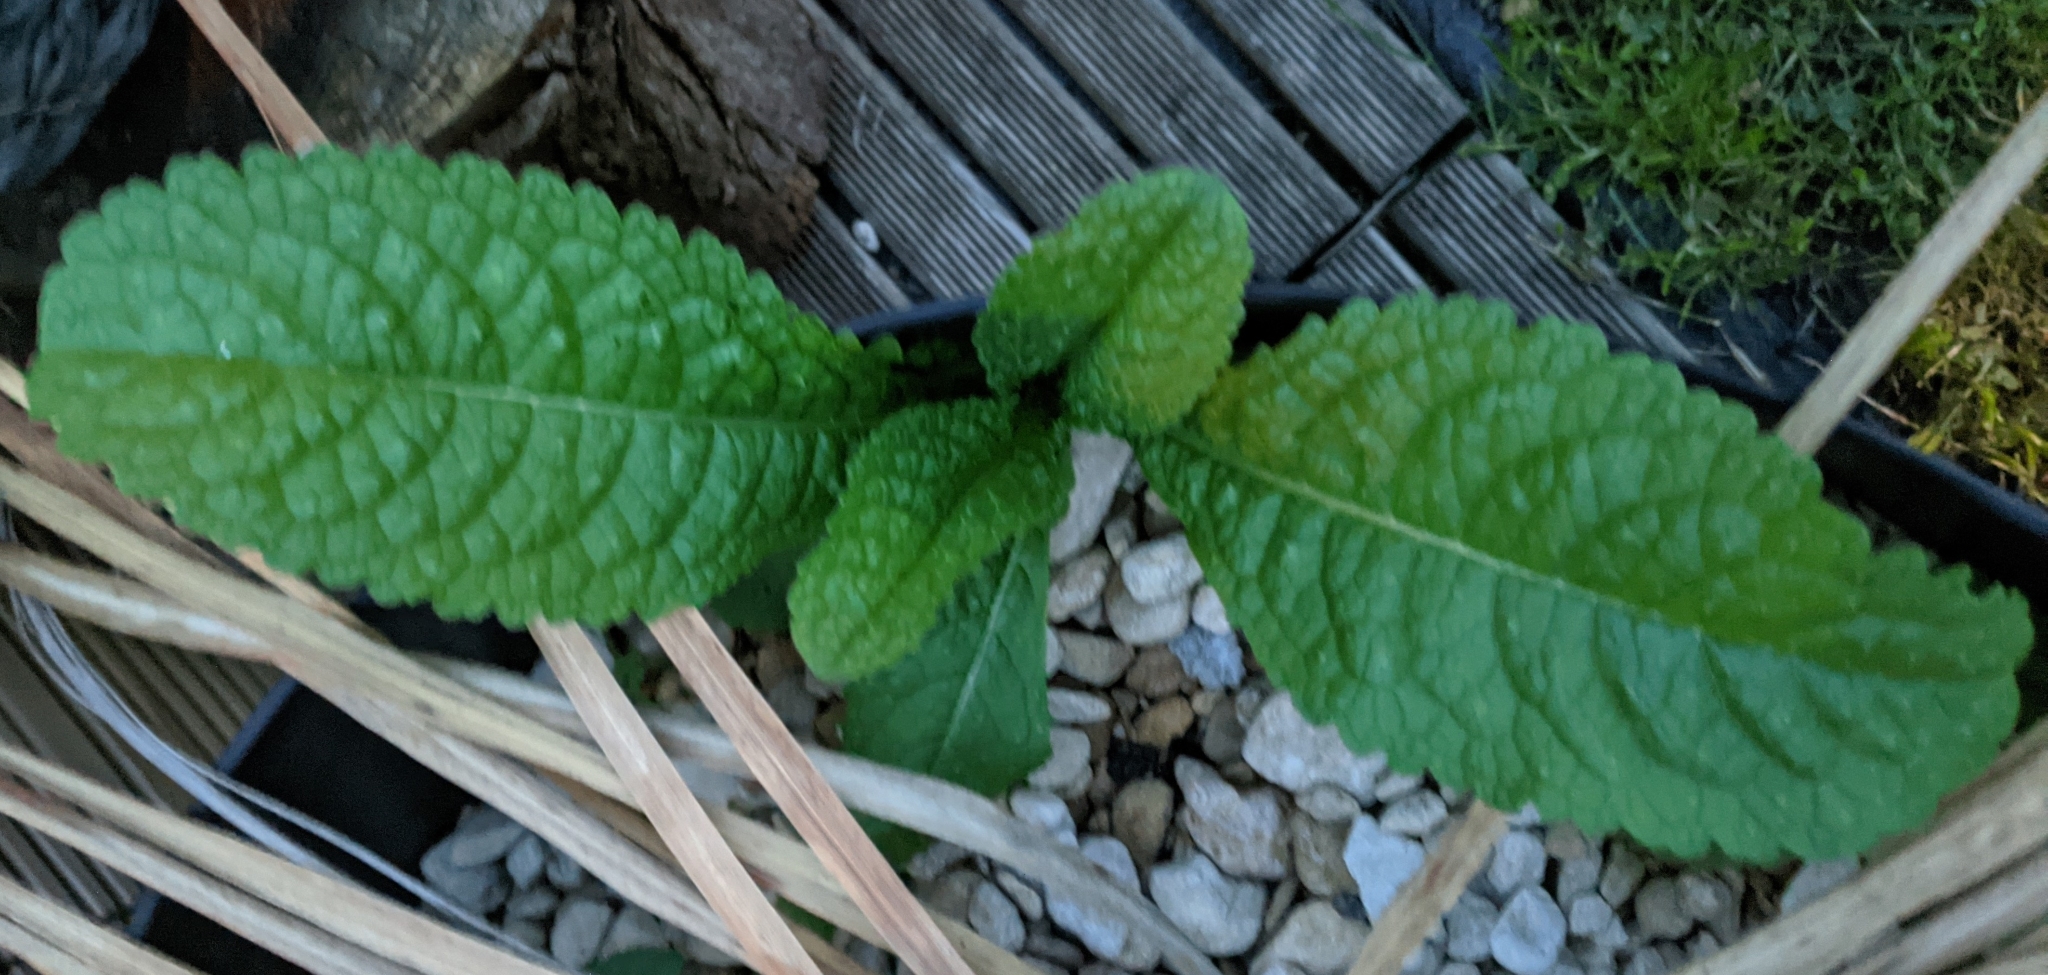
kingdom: Plantae
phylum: Tracheophyta
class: Magnoliopsida
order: Dipsacales
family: Caprifoliaceae
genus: Dipsacus
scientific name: Dipsacus fullonum
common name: Teasel
